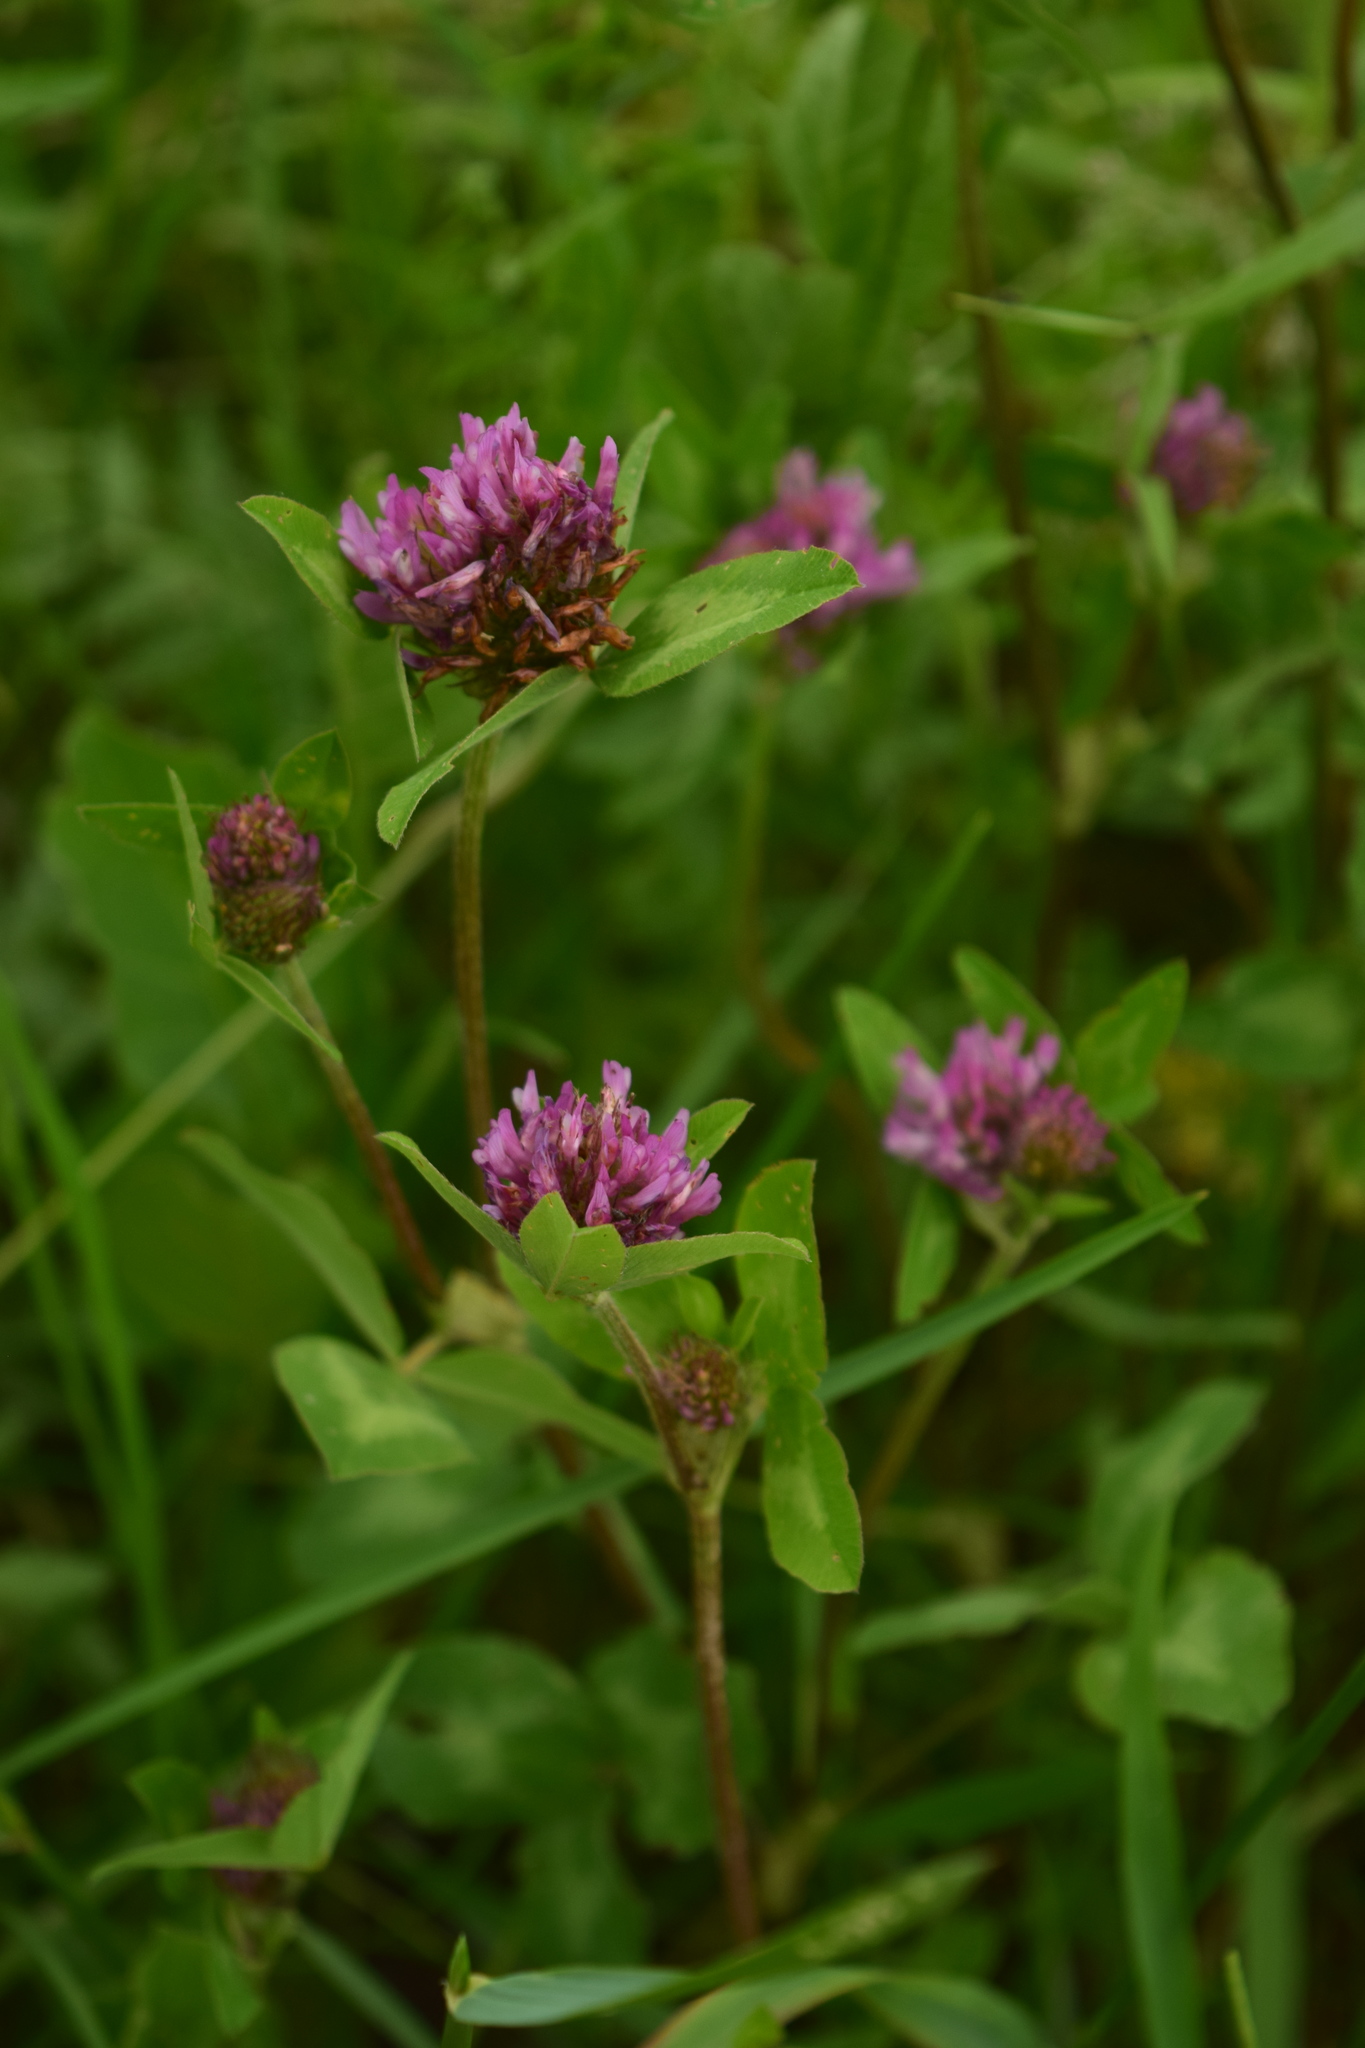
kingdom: Plantae
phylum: Tracheophyta
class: Magnoliopsida
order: Fabales
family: Fabaceae
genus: Trifolium
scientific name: Trifolium pratense
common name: Red clover
